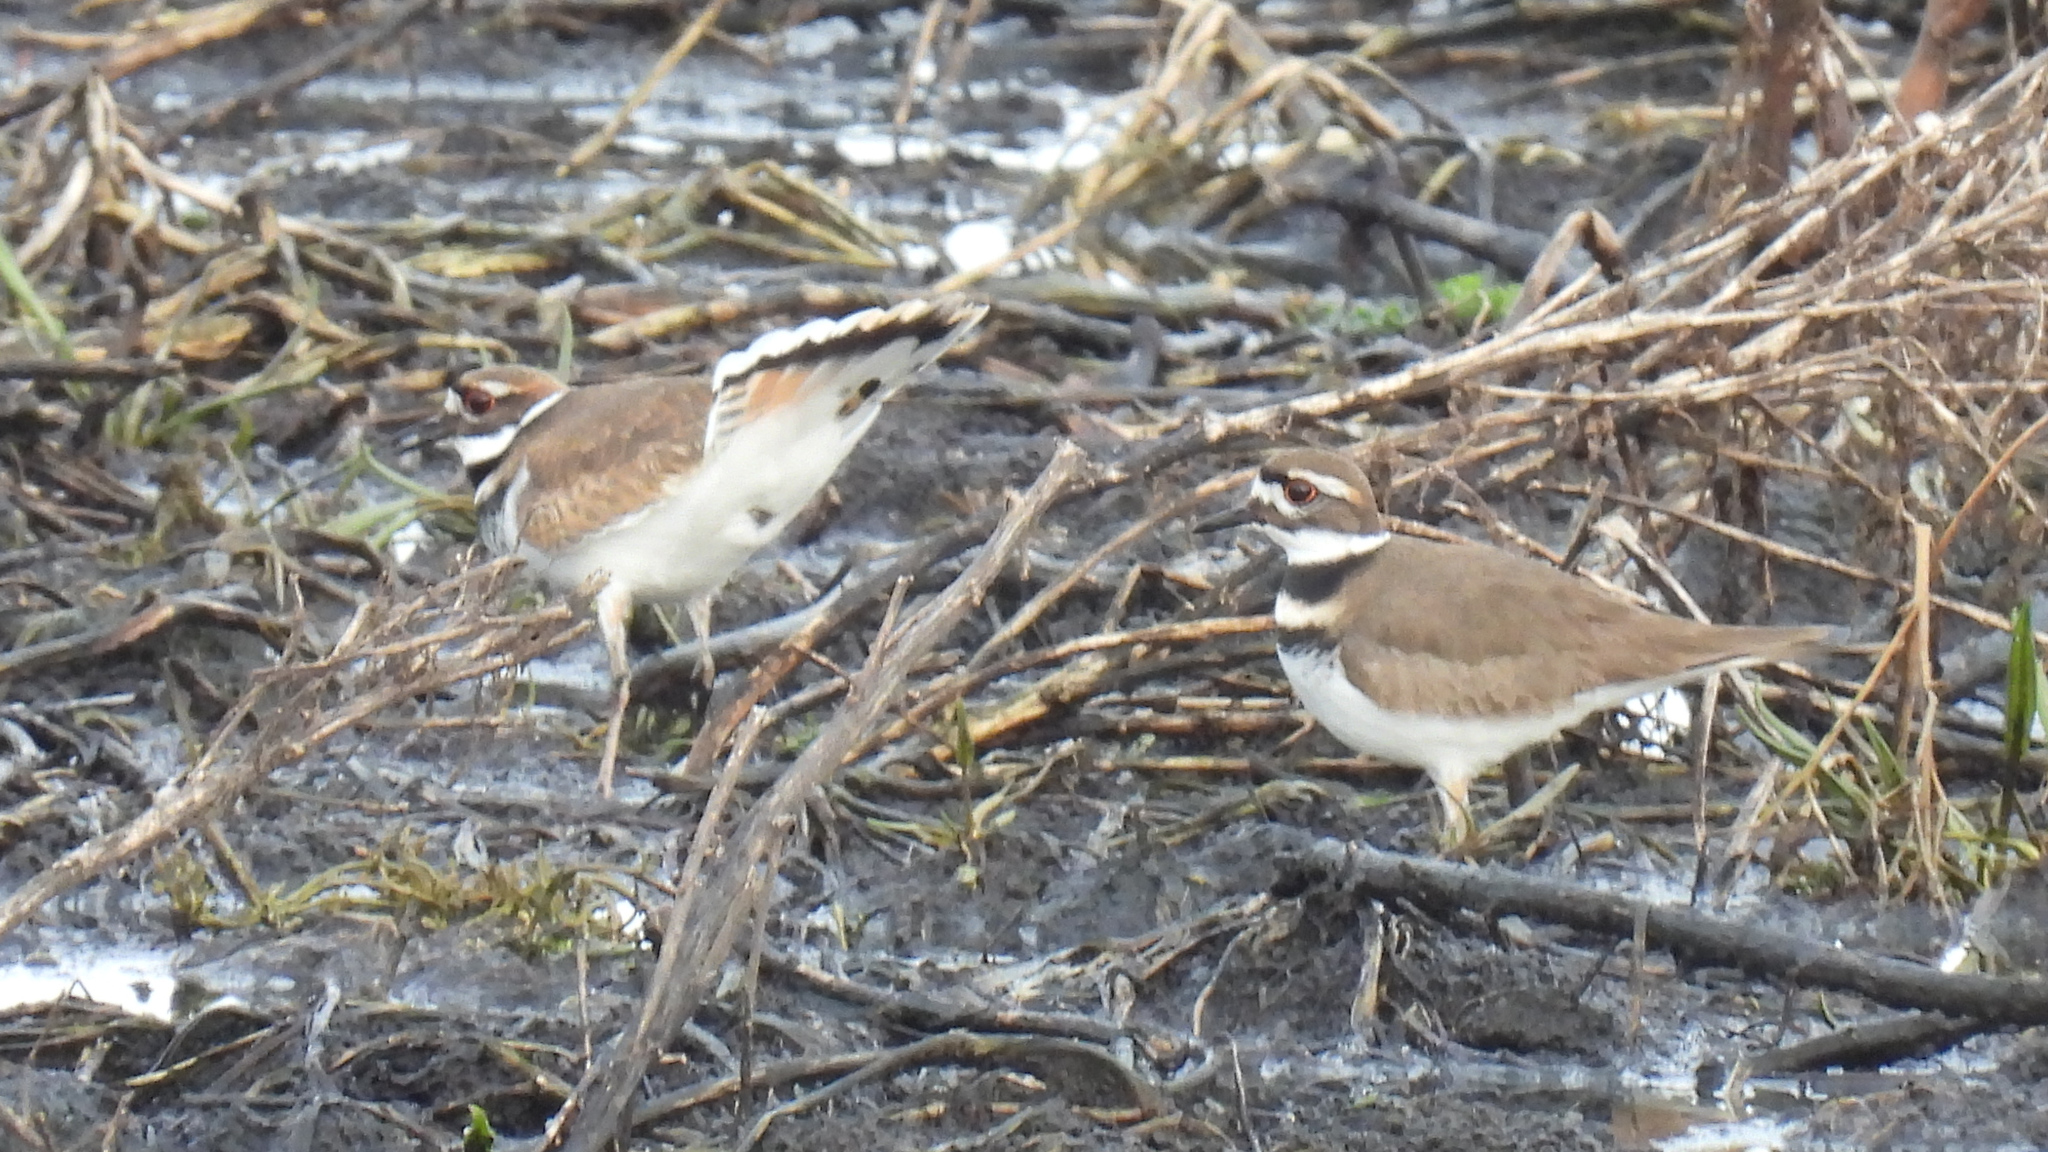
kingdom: Animalia
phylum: Chordata
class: Aves
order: Charadriiformes
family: Charadriidae
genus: Charadrius
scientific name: Charadrius vociferus
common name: Killdeer
